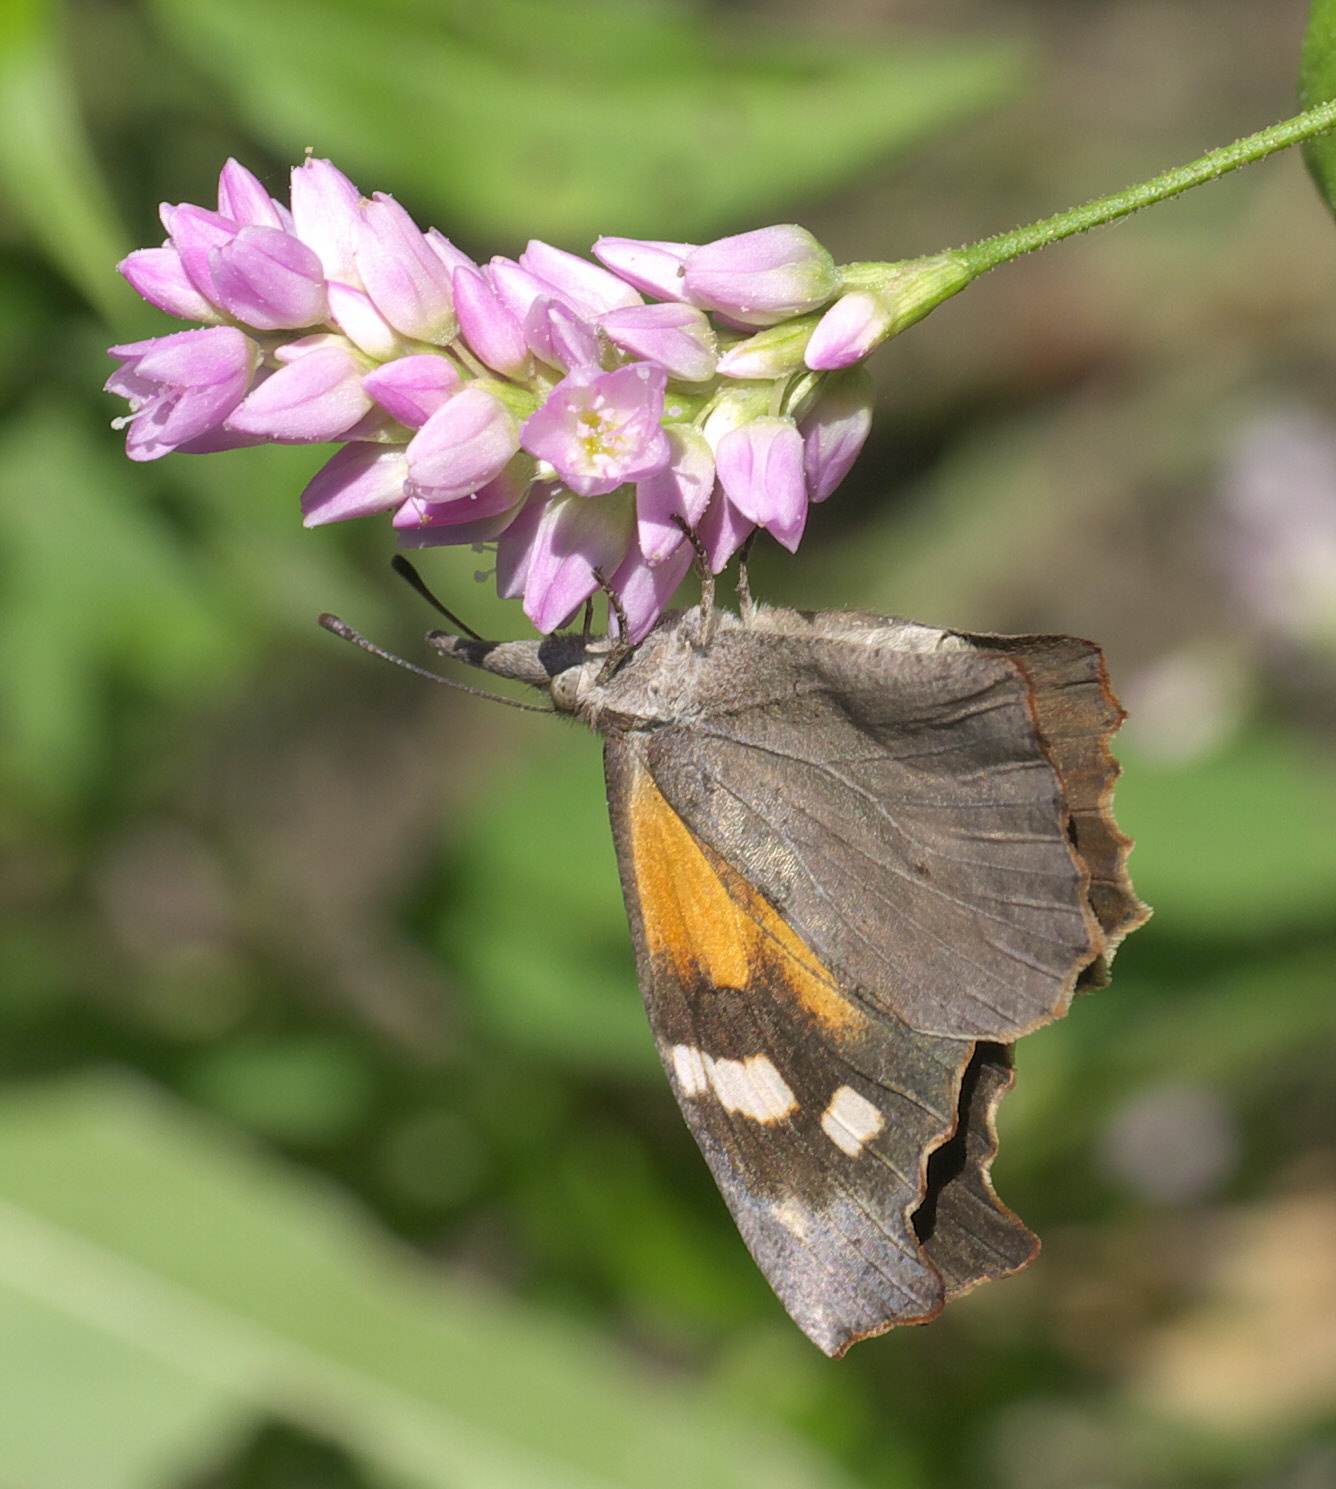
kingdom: Animalia
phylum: Arthropoda
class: Insecta
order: Lepidoptera
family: Nymphalidae
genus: Libytheana
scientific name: Libytheana carinenta
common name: American snout
